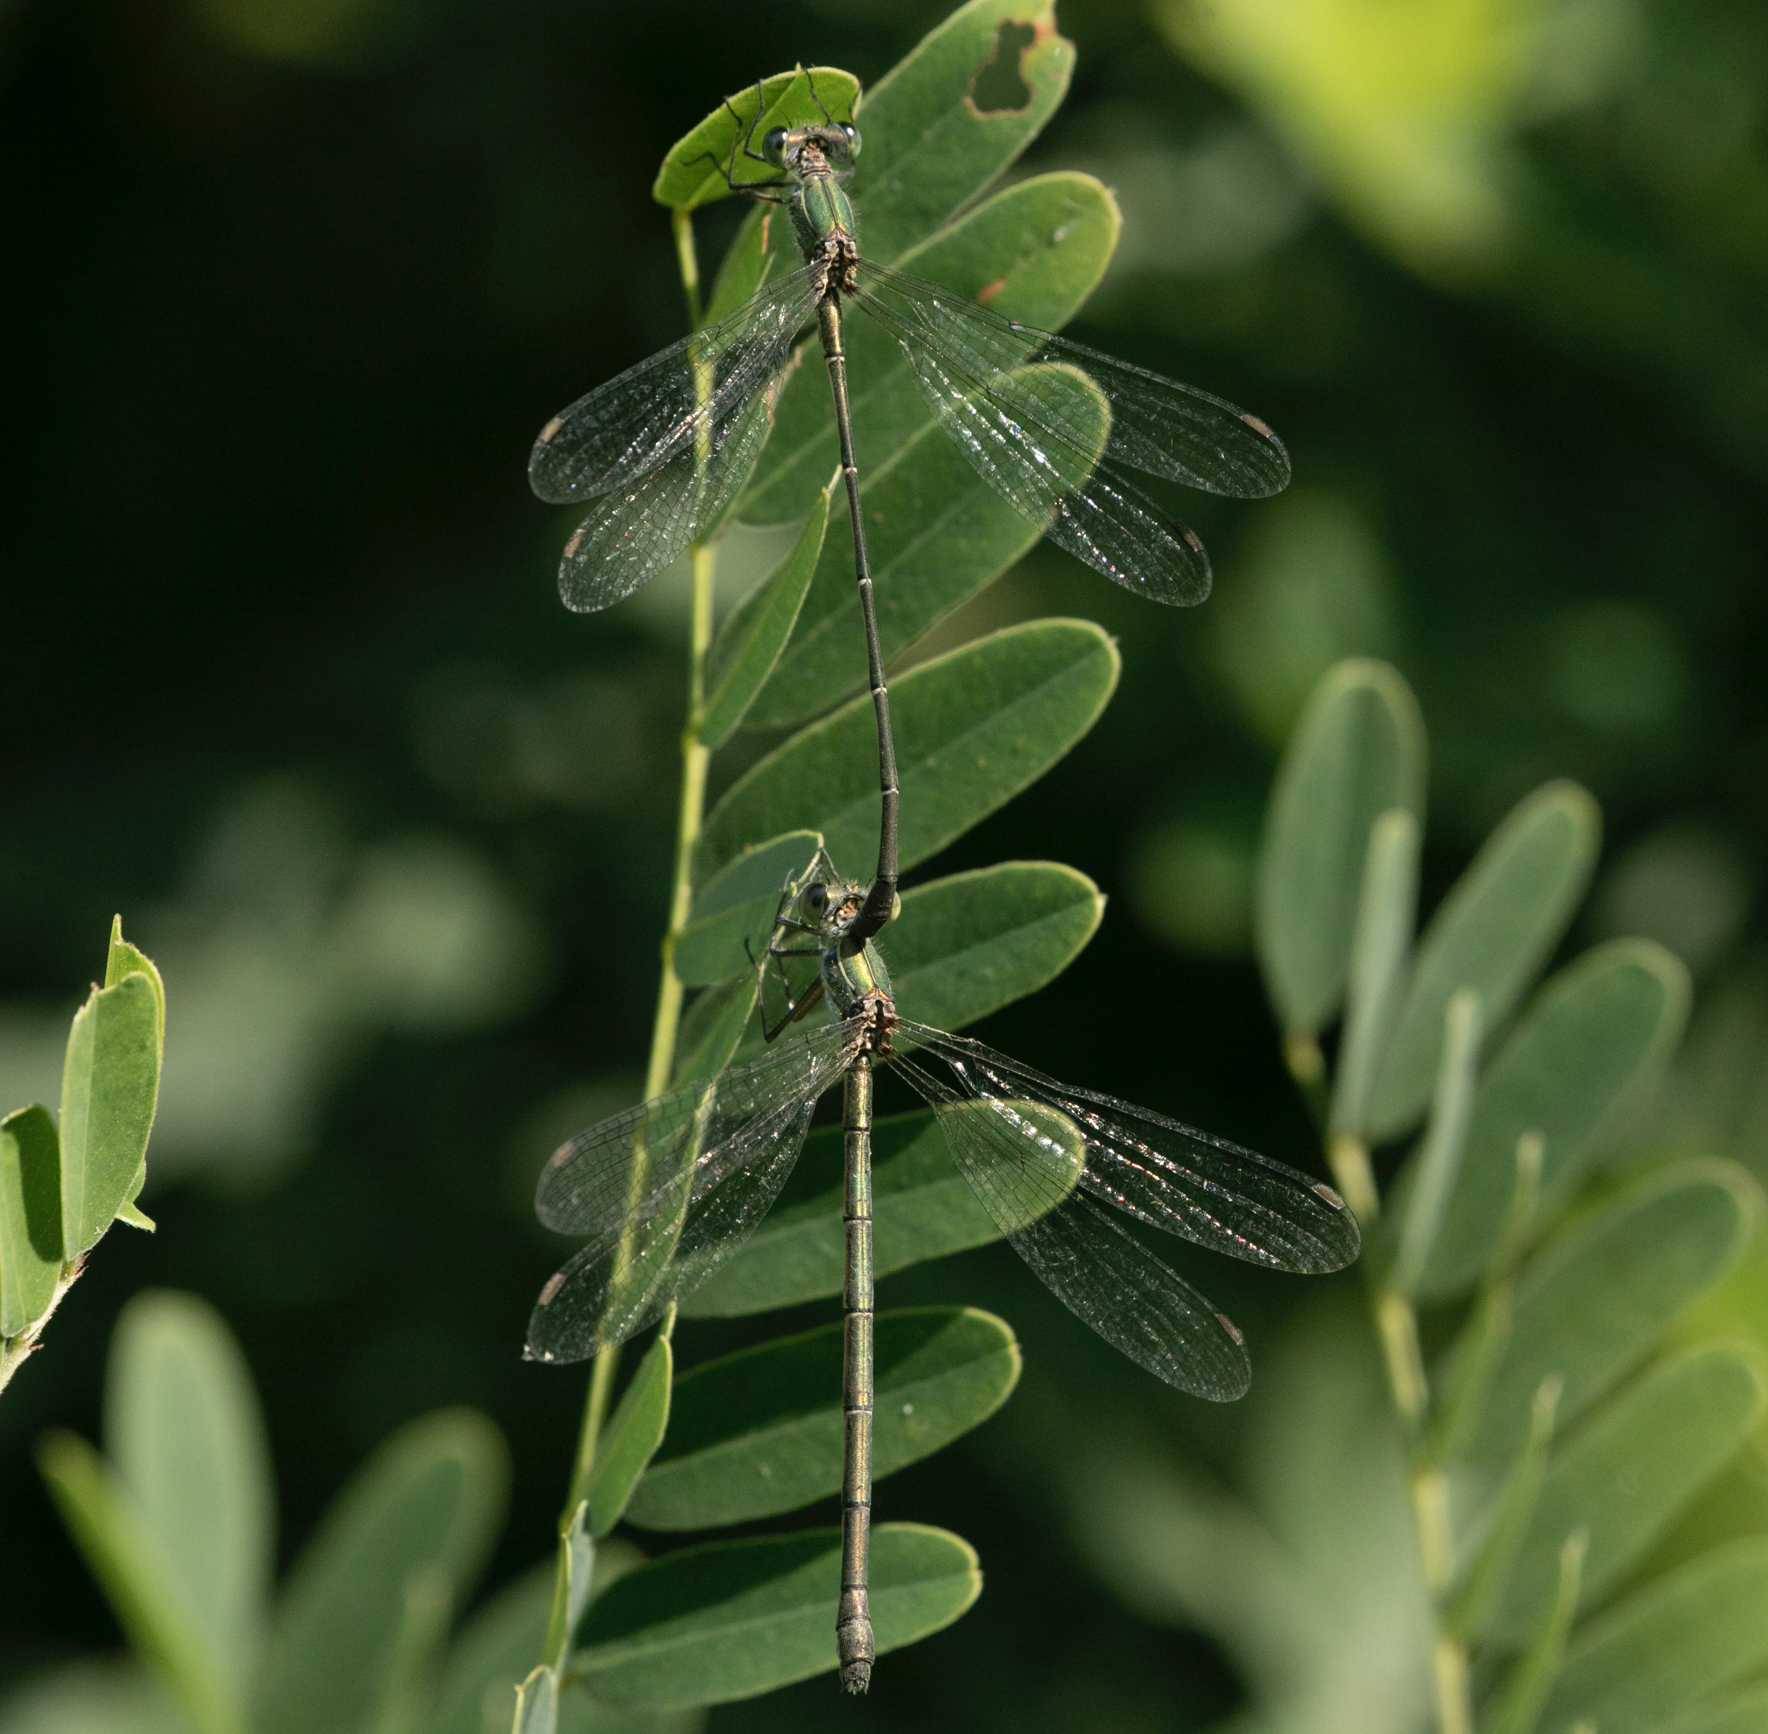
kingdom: Animalia
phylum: Arthropoda
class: Insecta
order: Odonata
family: Lestidae
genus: Chalcolestes
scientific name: Chalcolestes parvidens
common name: Eastern willow spreadwing
